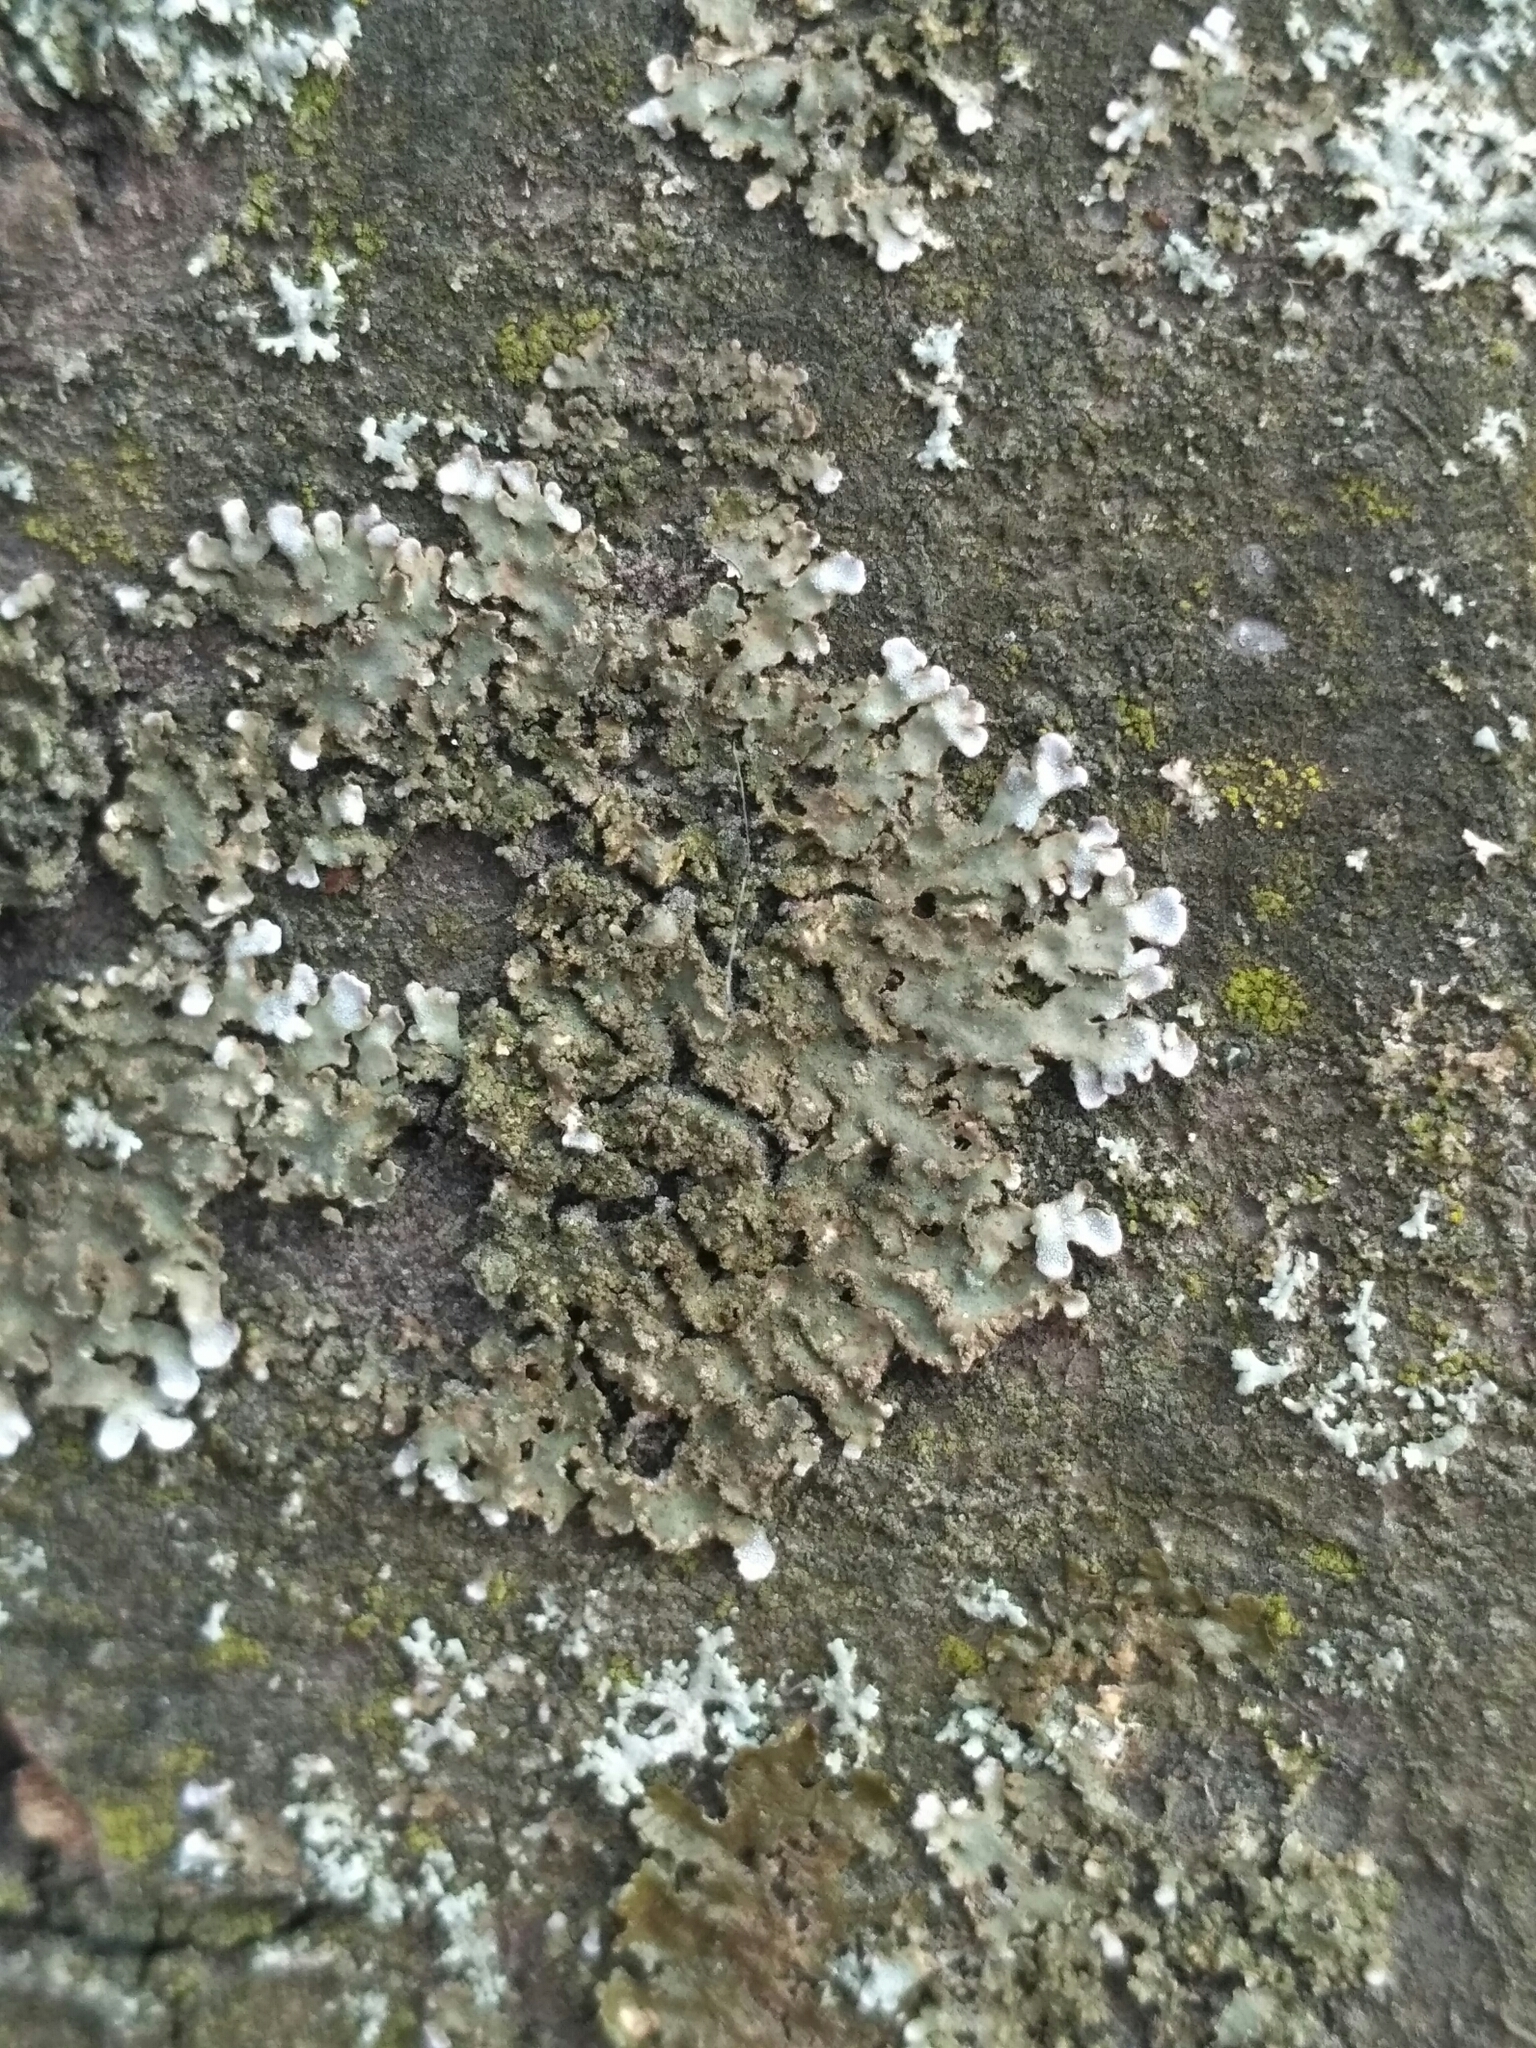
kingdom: Fungi
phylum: Ascomycota
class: Lecanoromycetes
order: Caliciales
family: Physciaceae
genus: Physconia
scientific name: Physconia enteroxantha
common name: Yellow-edged frost lichen
